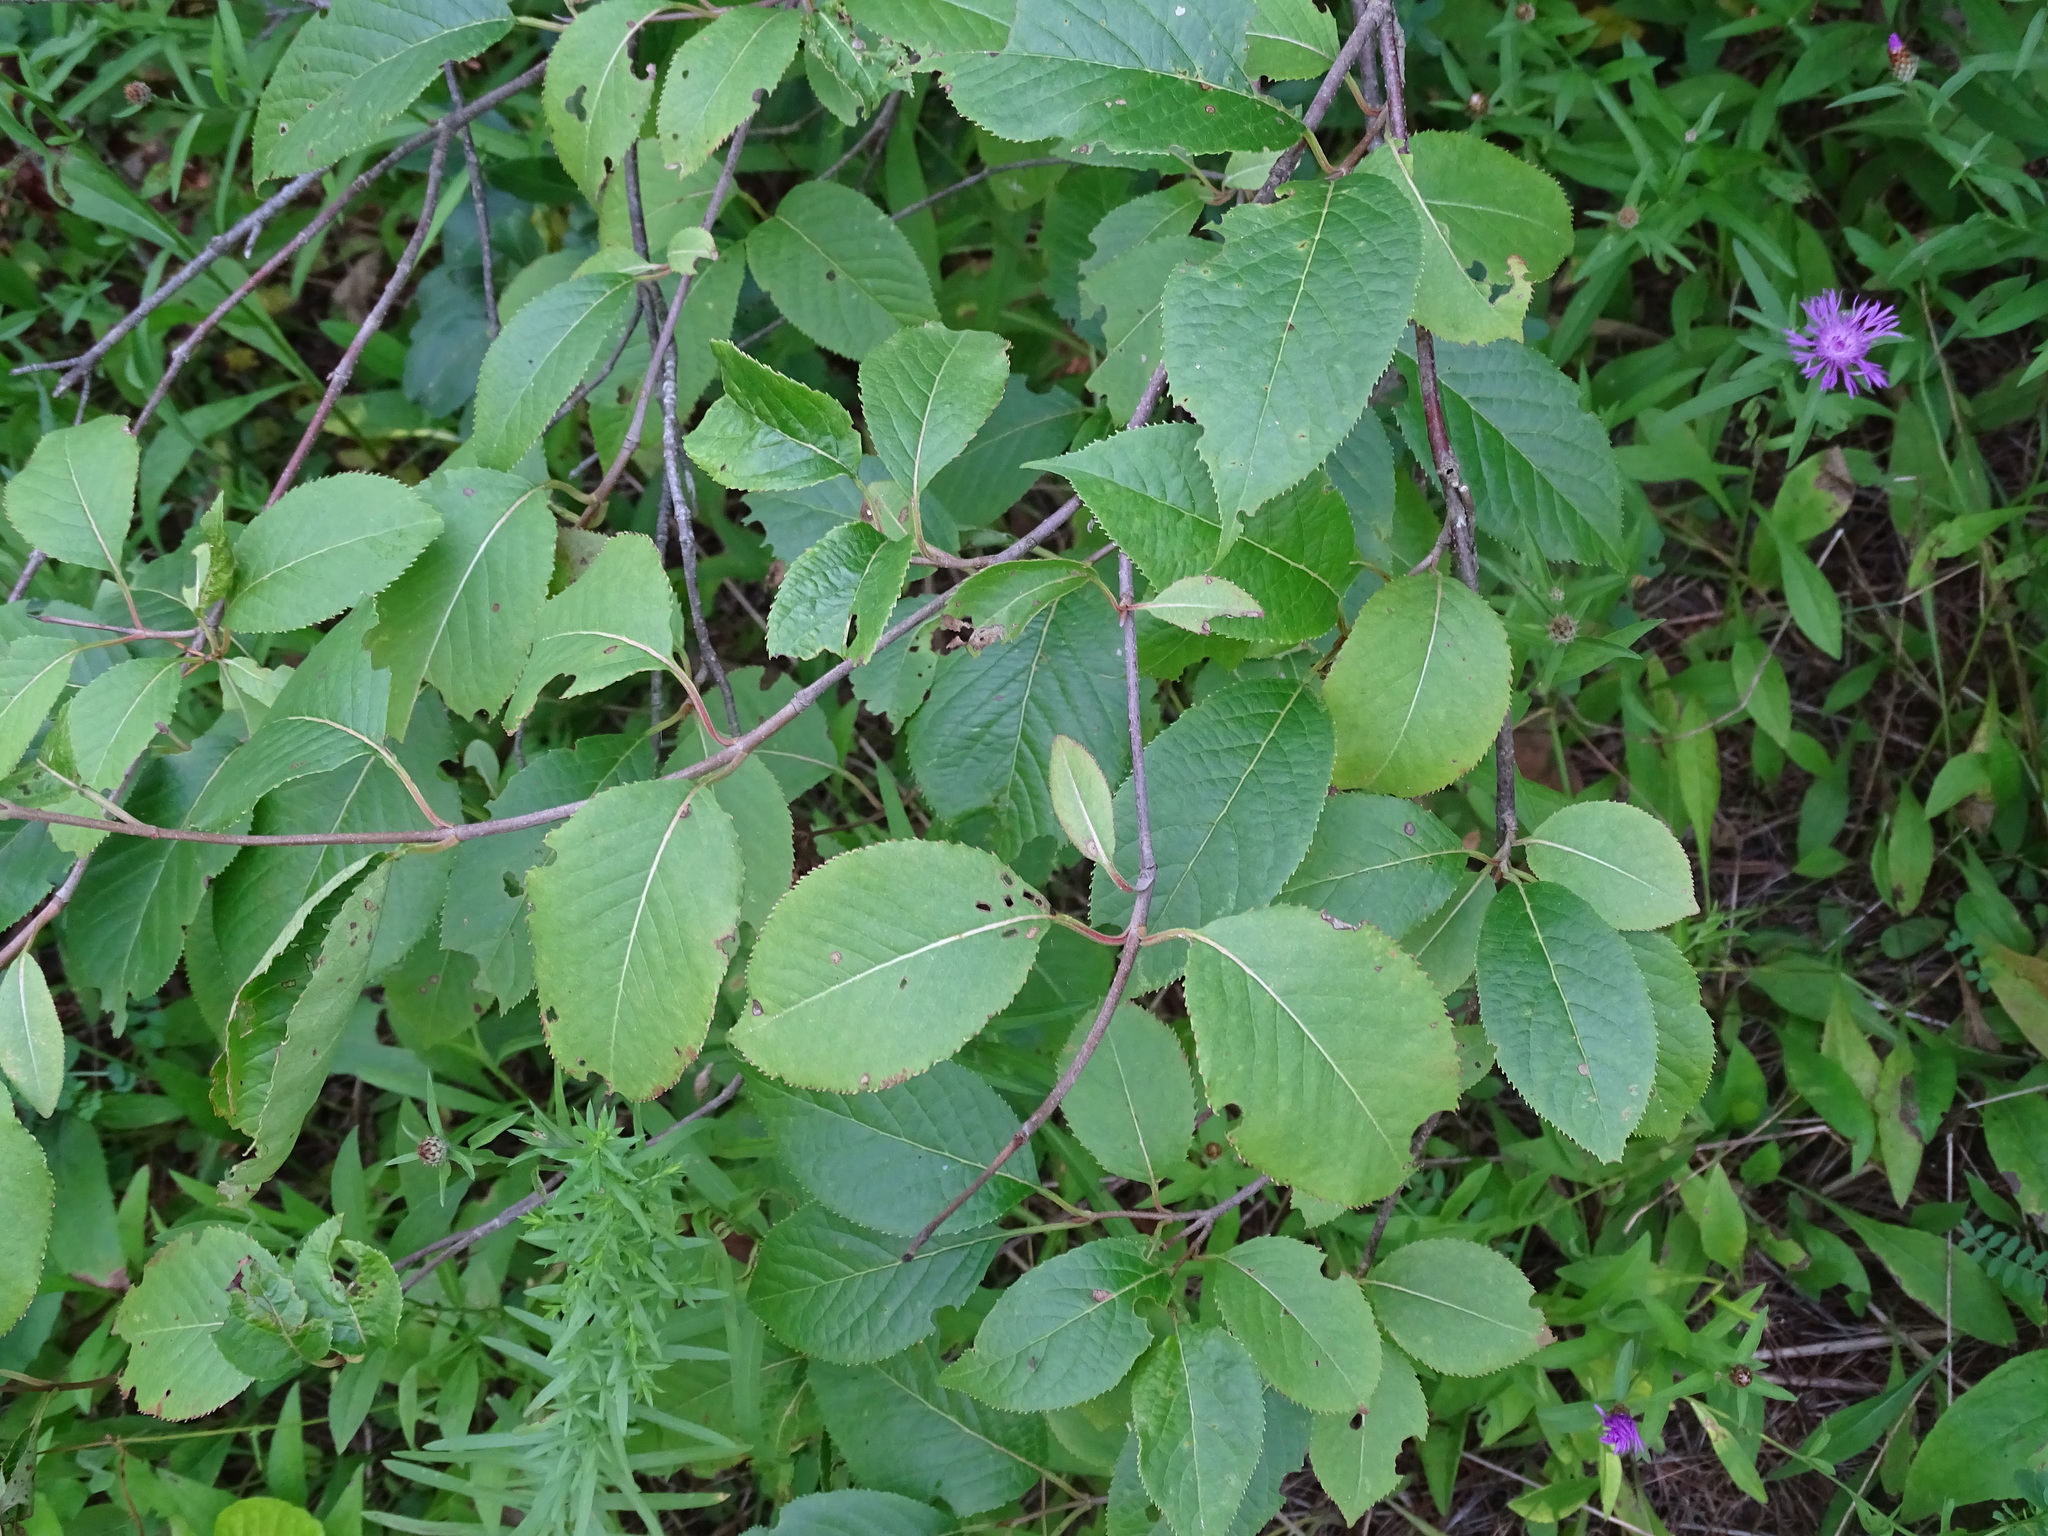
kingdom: Plantae
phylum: Tracheophyta
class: Magnoliopsida
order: Dipsacales
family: Viburnaceae
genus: Viburnum
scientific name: Viburnum lentago
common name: Black haw
